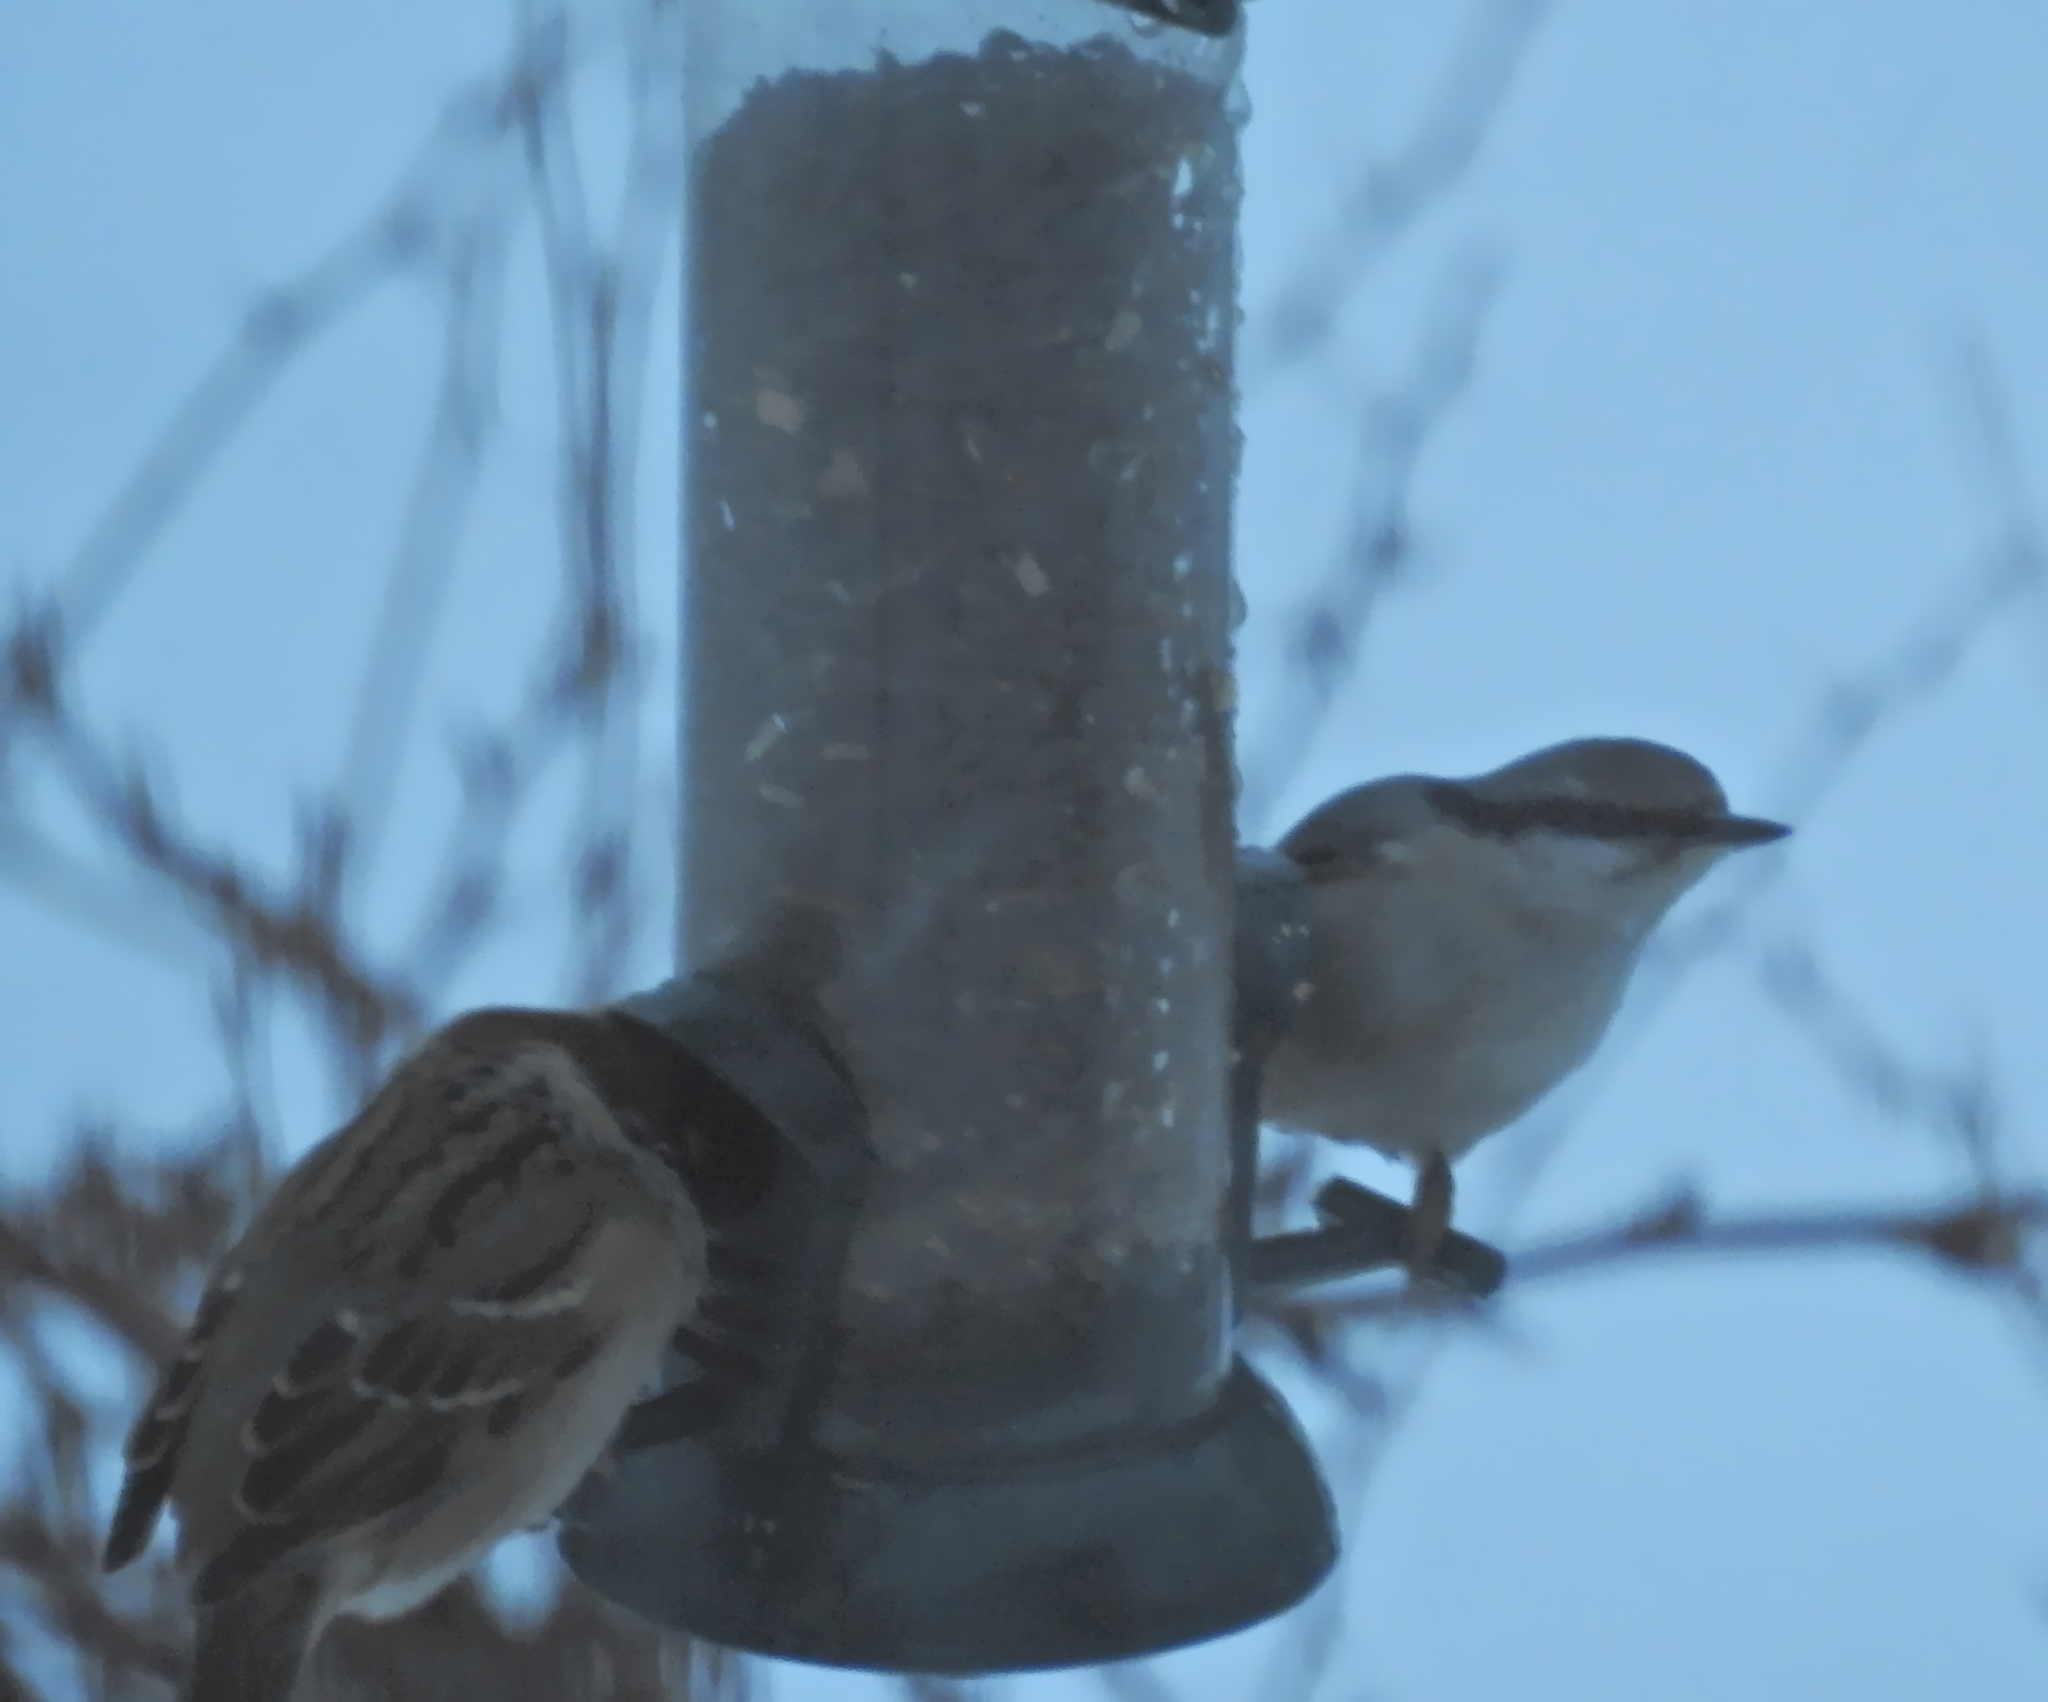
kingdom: Animalia
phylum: Chordata
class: Aves
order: Passeriformes
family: Passeridae
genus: Passer
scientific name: Passer montanus
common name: Eurasian tree sparrow
